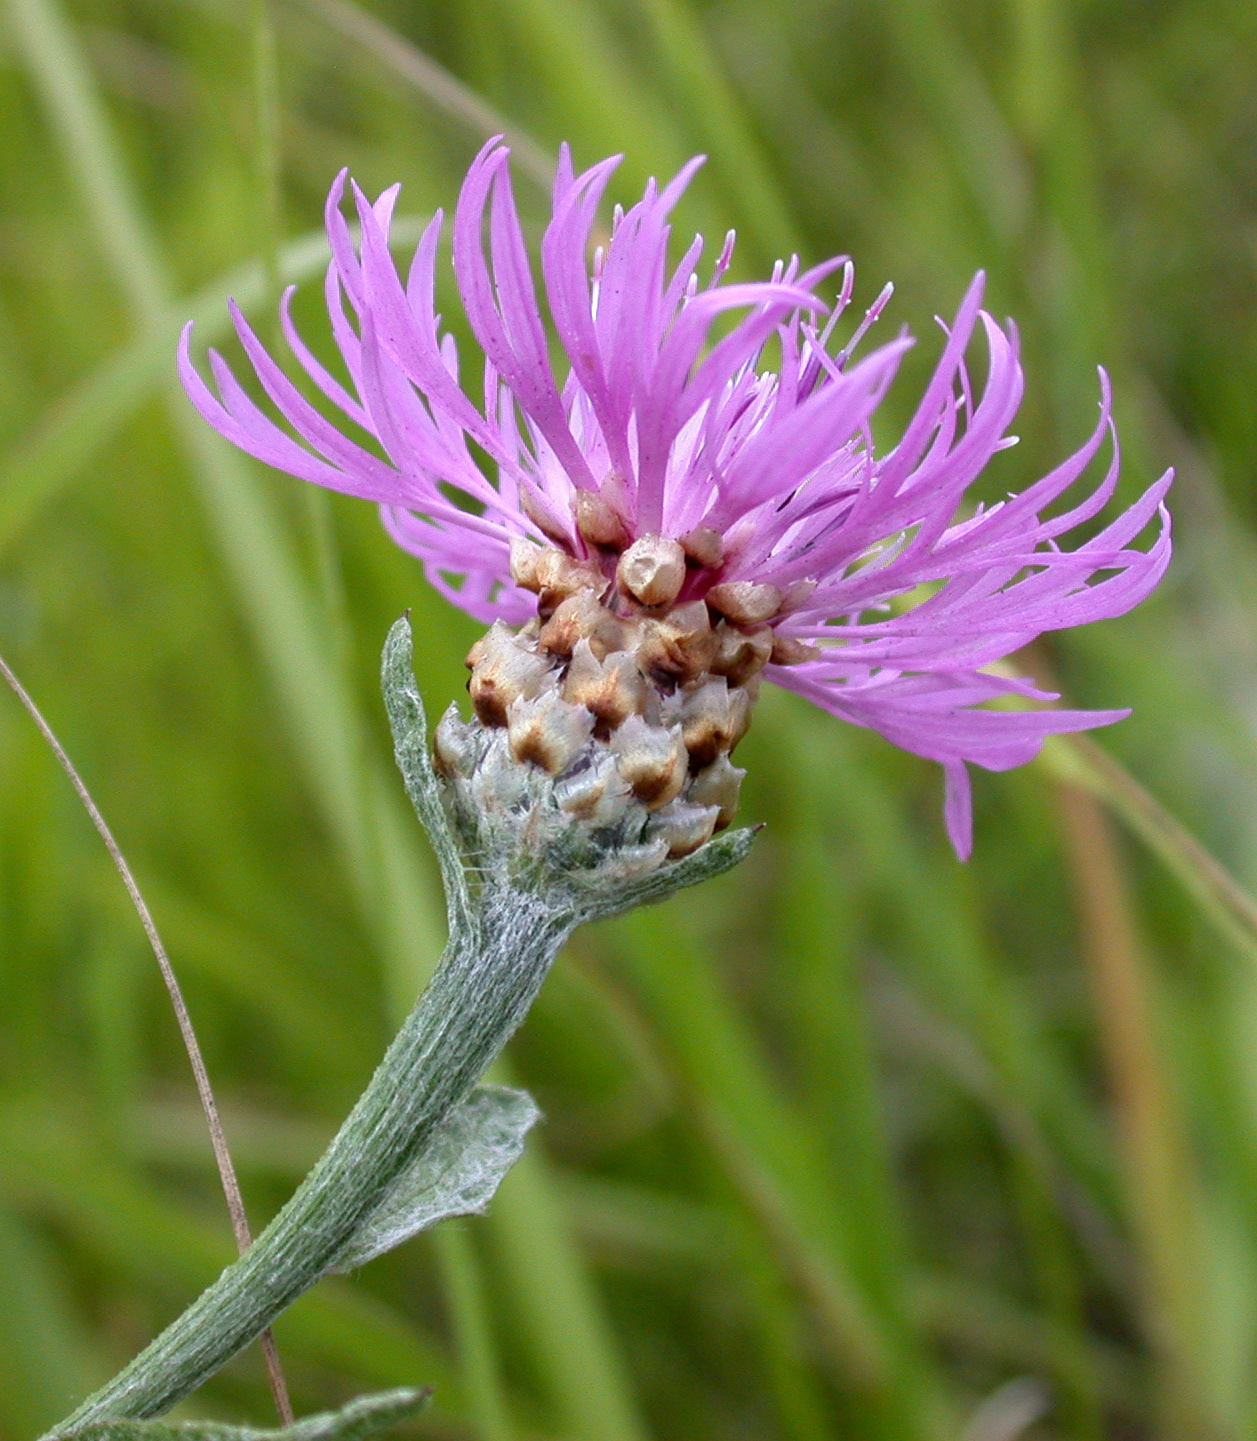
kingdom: Plantae
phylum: Tracheophyta
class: Magnoliopsida
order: Asterales
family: Asteraceae
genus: Centaurea
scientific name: Centaurea jacea
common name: Brown knapweed
